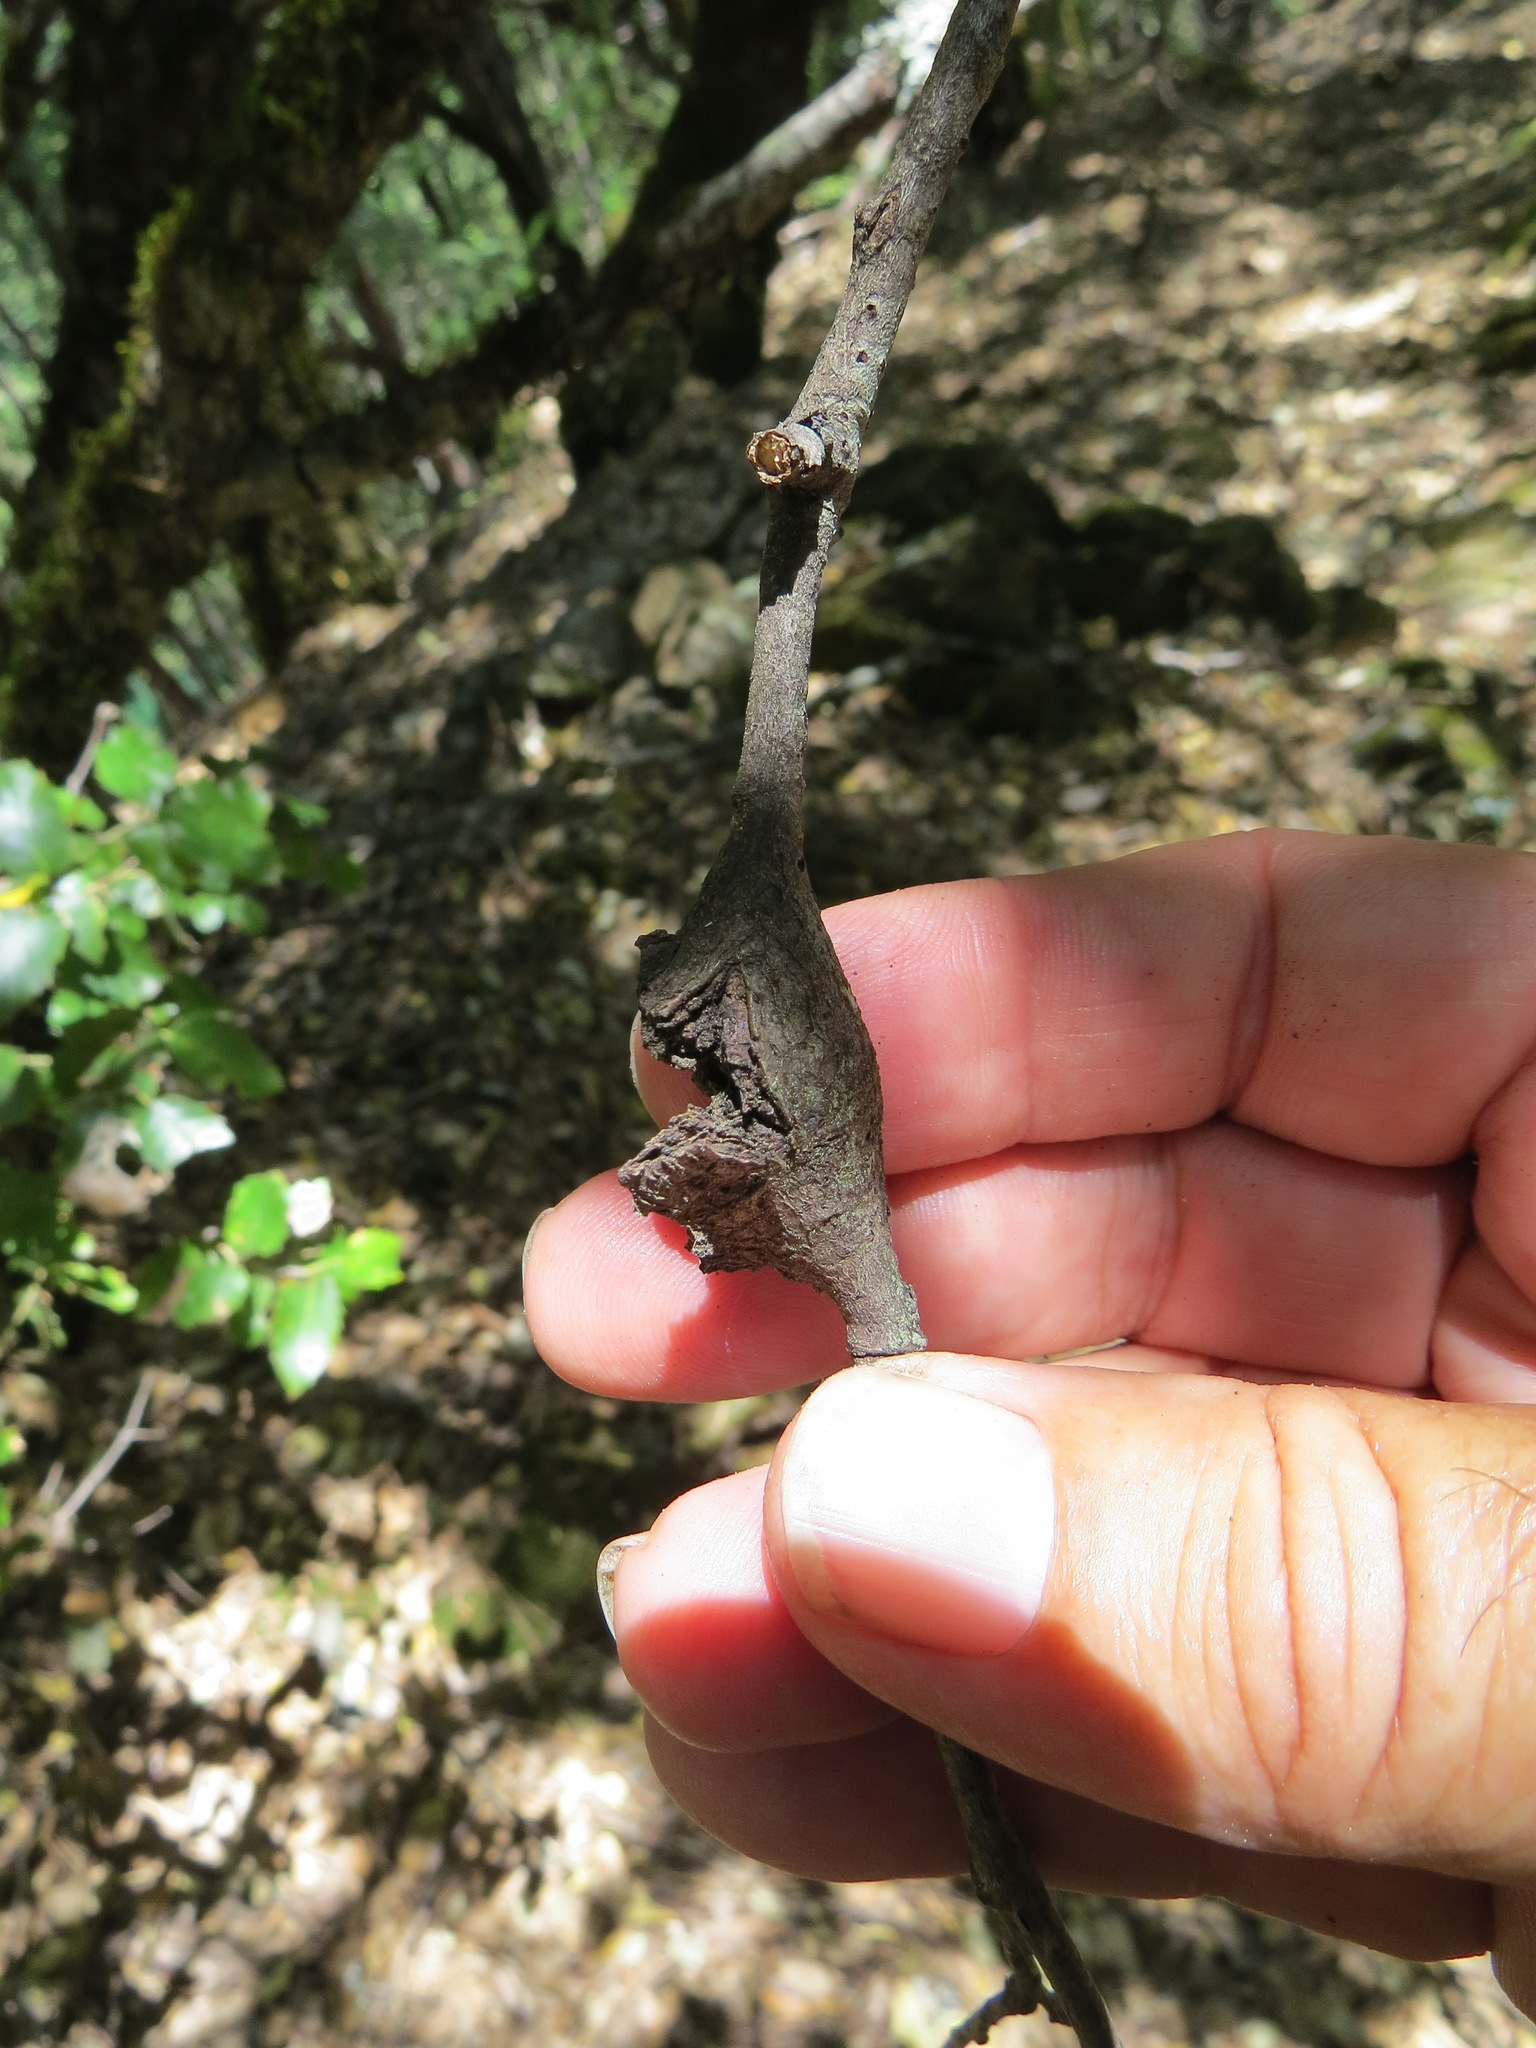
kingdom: Animalia
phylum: Arthropoda
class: Insecta
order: Hymenoptera
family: Cynipidae
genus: Dryocosmus
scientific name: Dryocosmus
